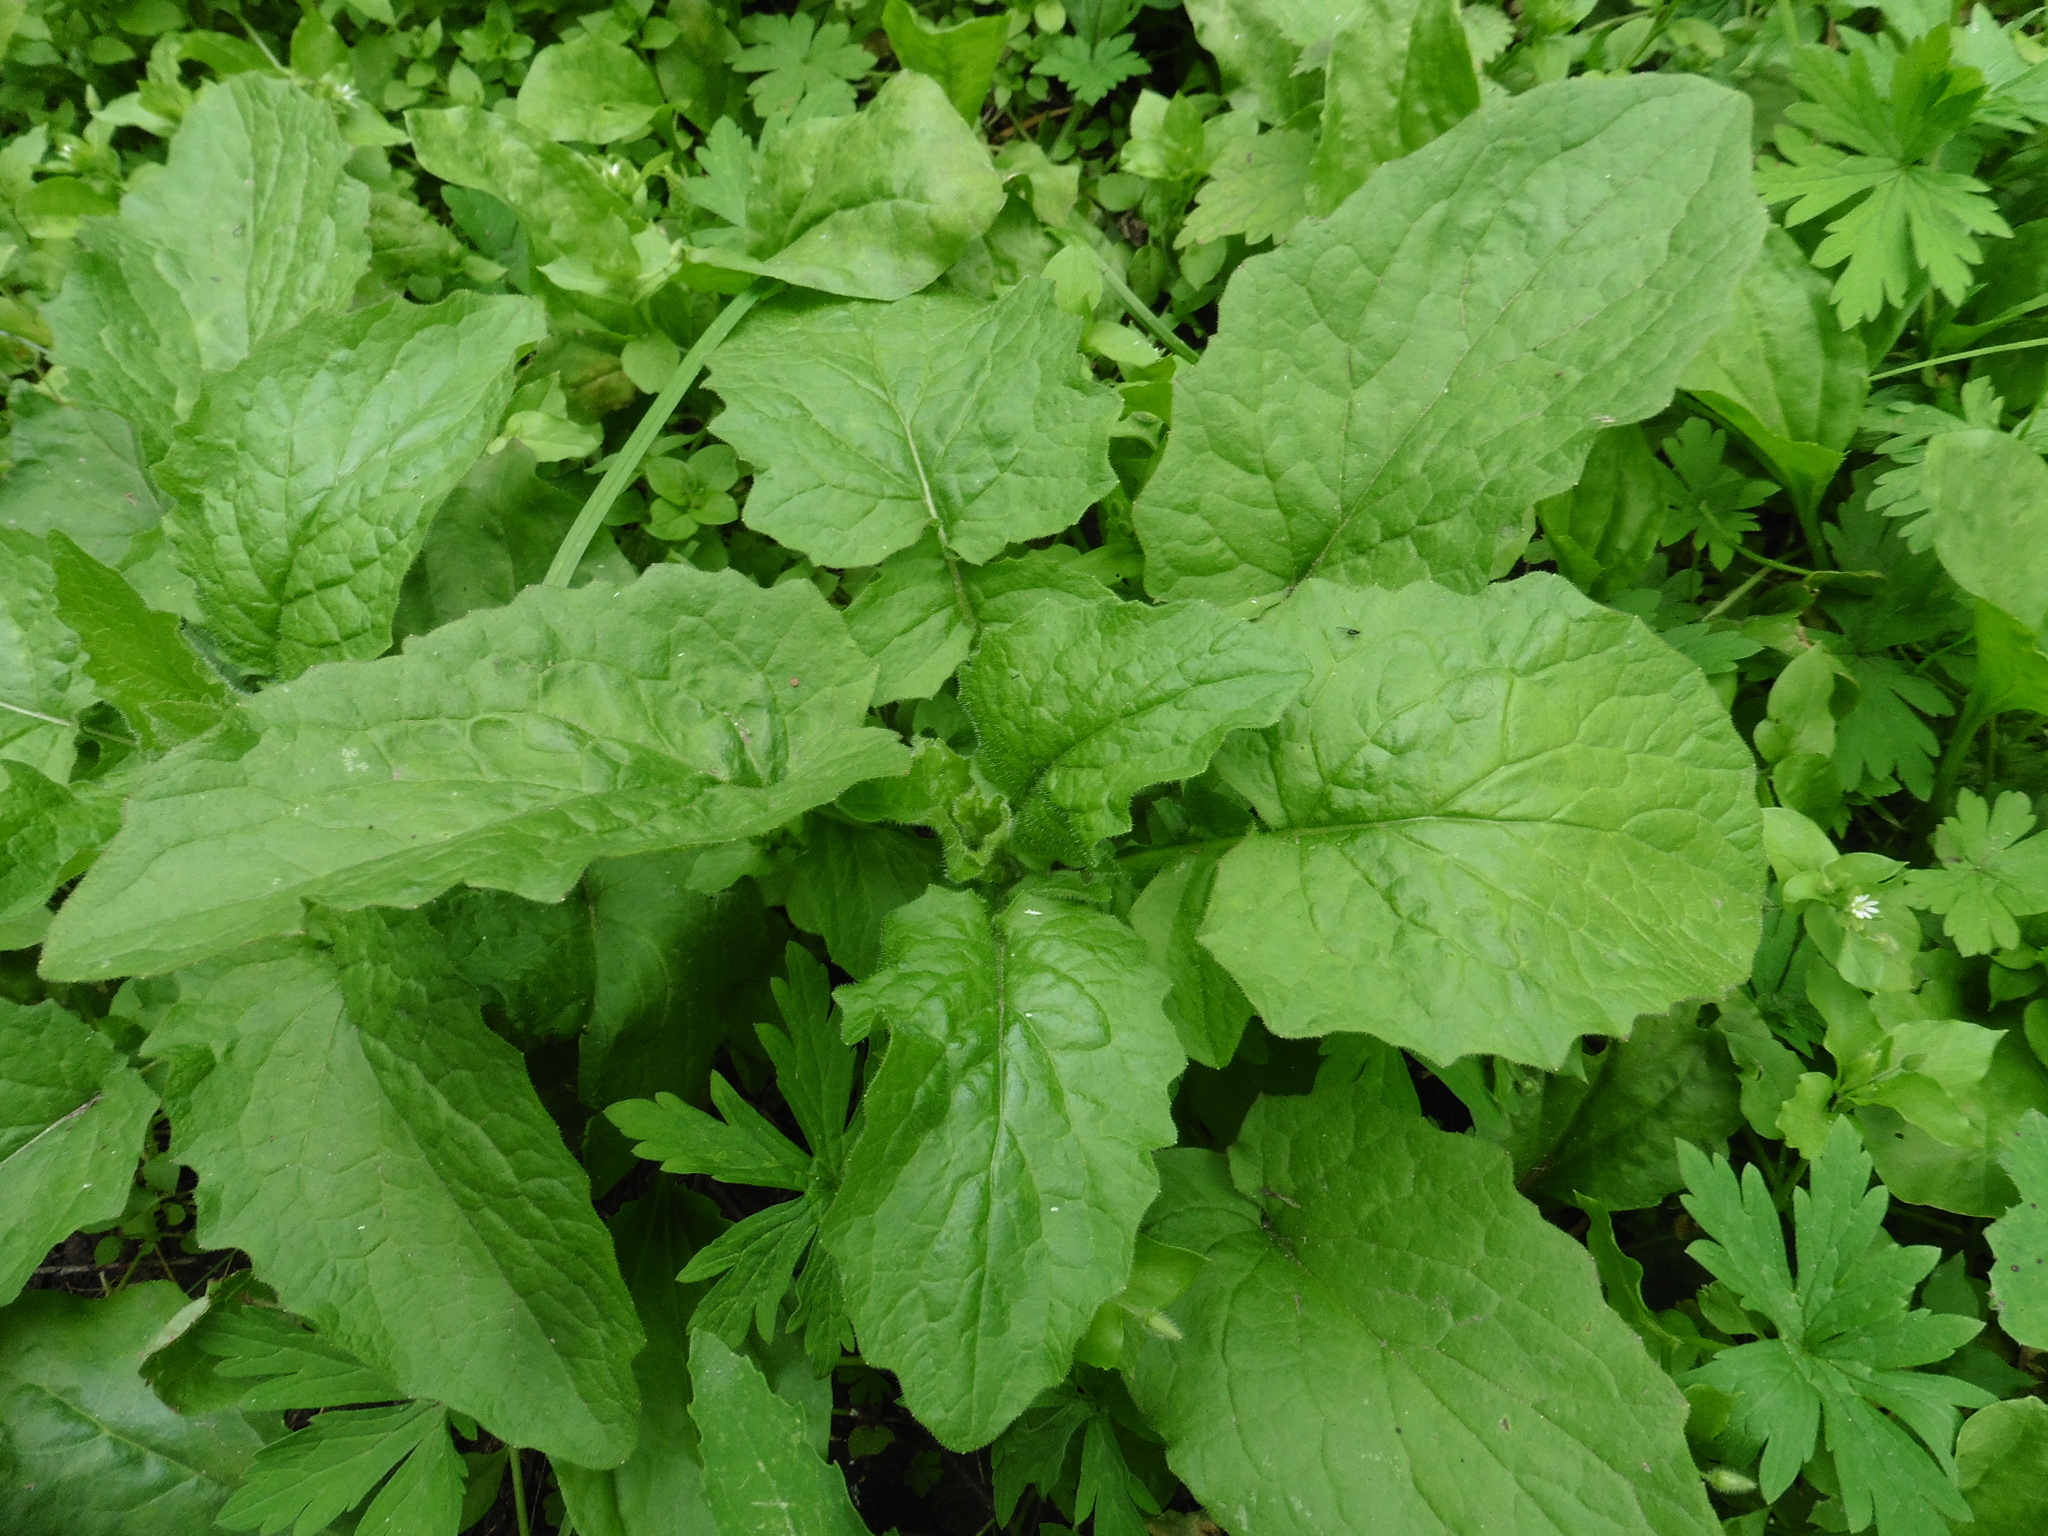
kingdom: Plantae
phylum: Tracheophyta
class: Magnoliopsida
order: Asterales
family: Asteraceae
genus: Lapsana
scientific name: Lapsana communis
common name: Nipplewort
